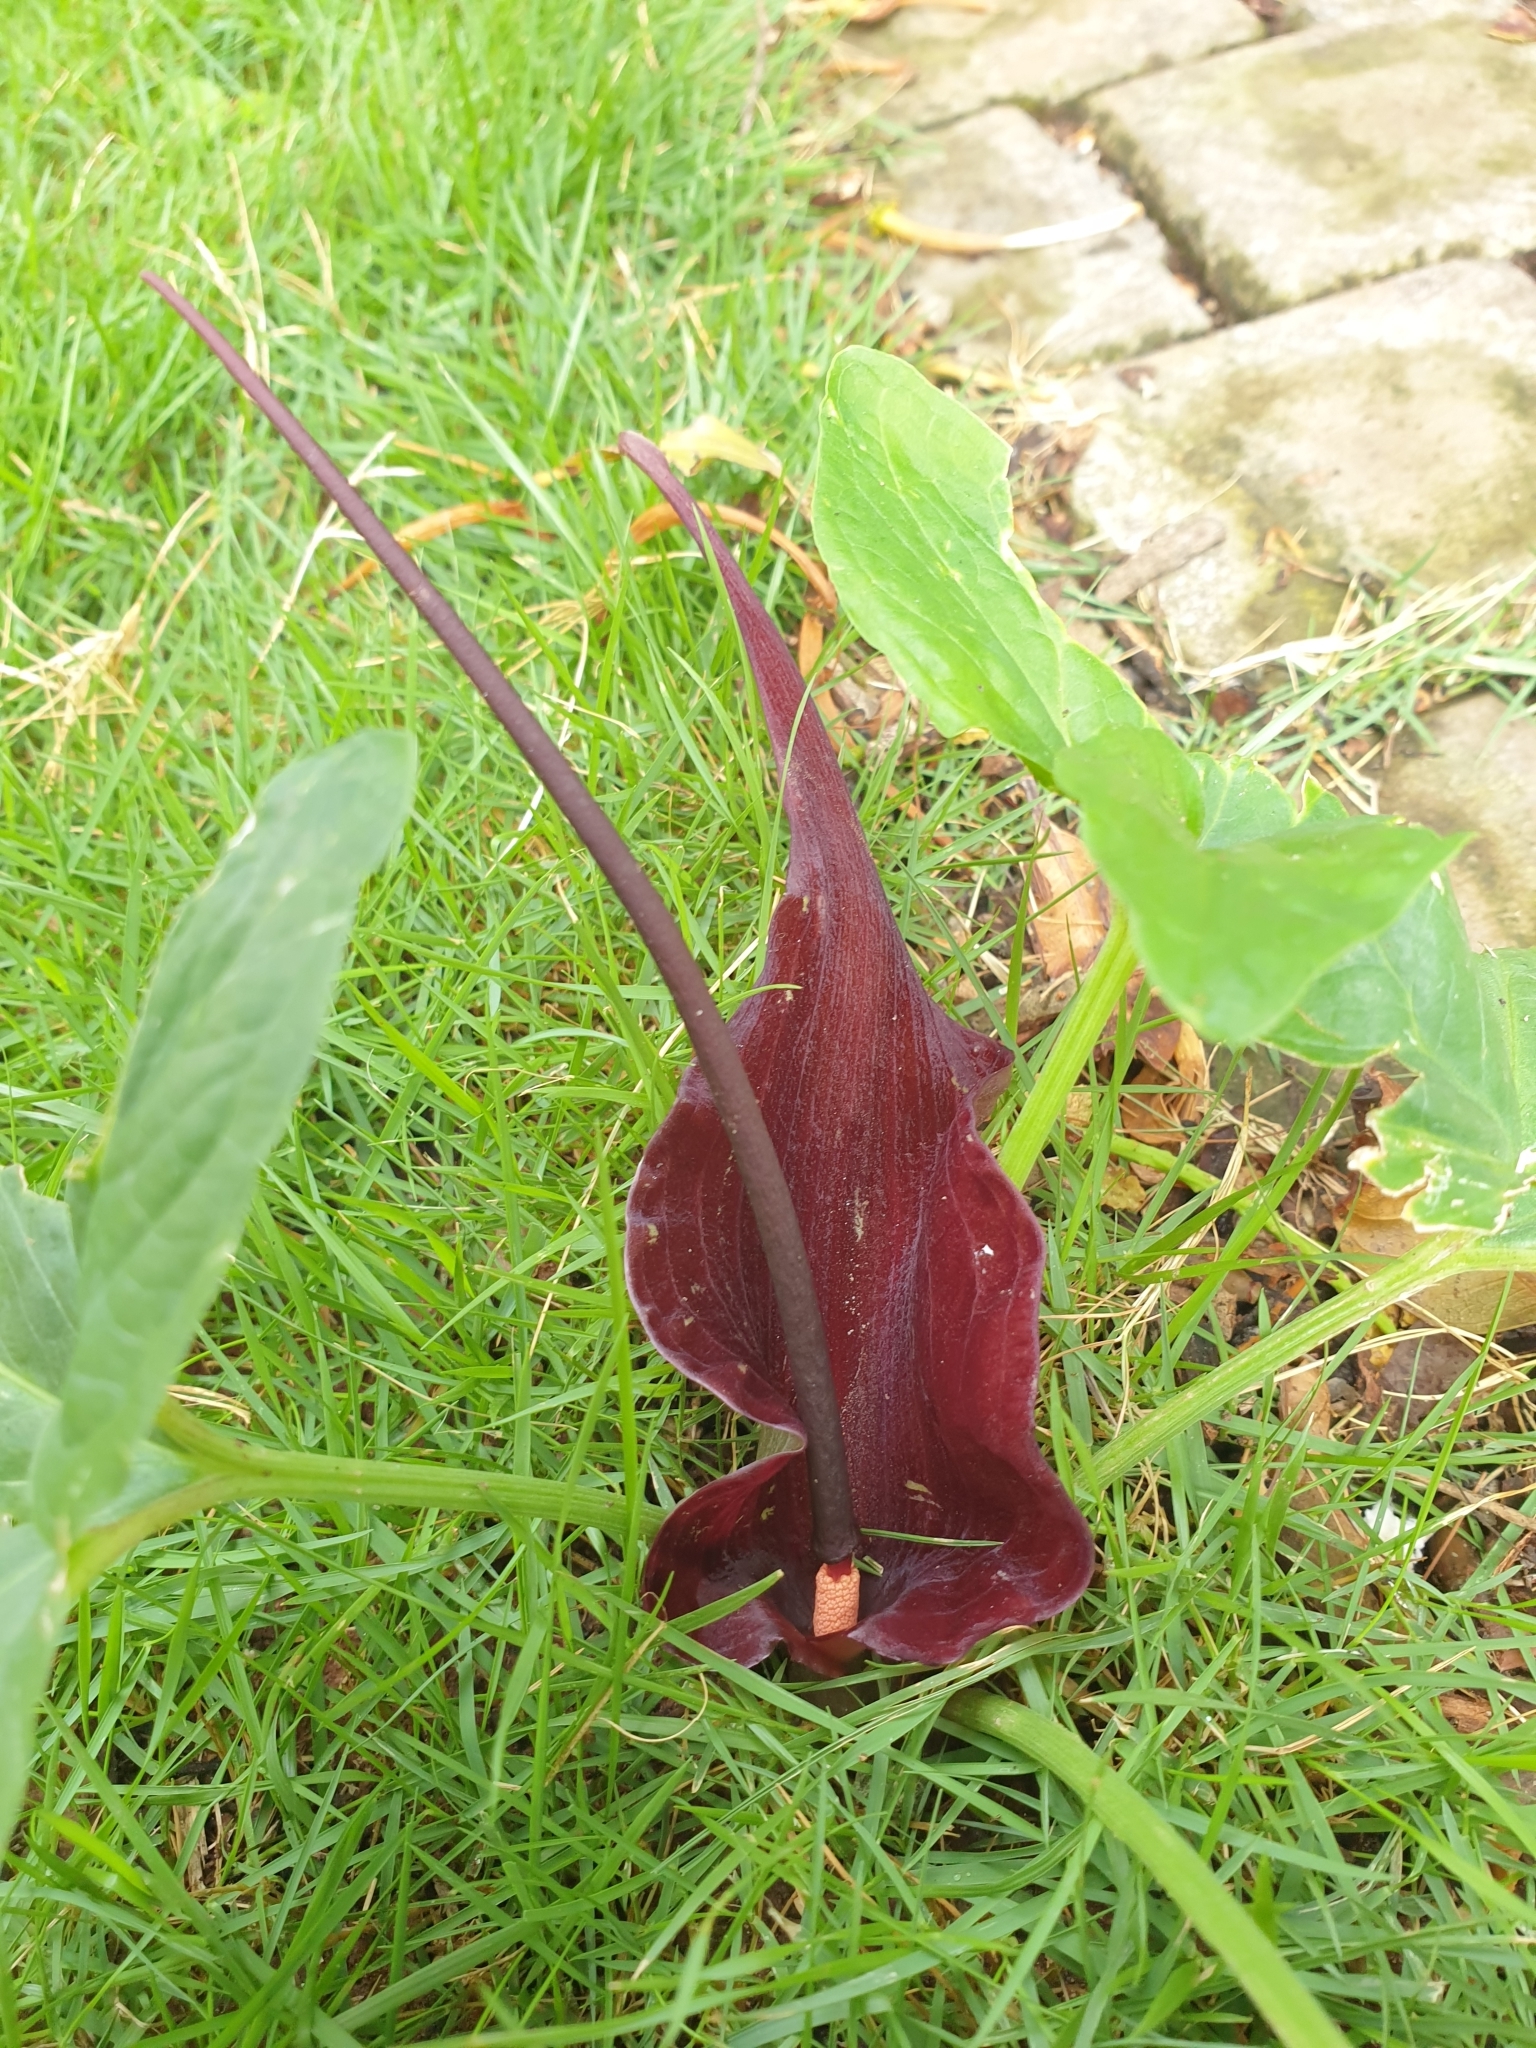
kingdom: Plantae
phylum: Tracheophyta
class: Liliopsida
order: Alismatales
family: Araceae
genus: Typhonium
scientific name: Typhonium roxburghii
